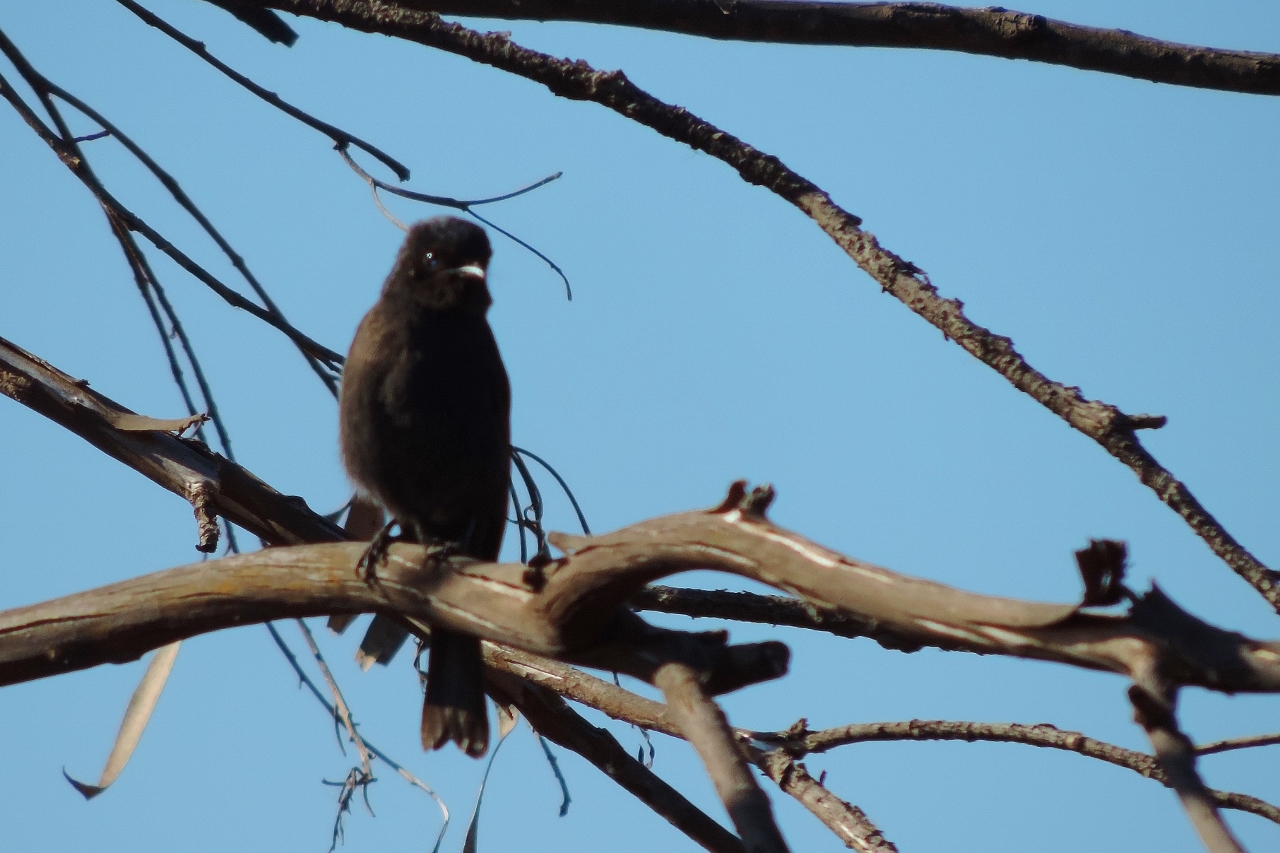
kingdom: Animalia
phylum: Chordata
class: Aves
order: Passeriformes
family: Muscicapidae
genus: Melaenornis
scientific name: Melaenornis pammelaina
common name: Southern black flycatcher
